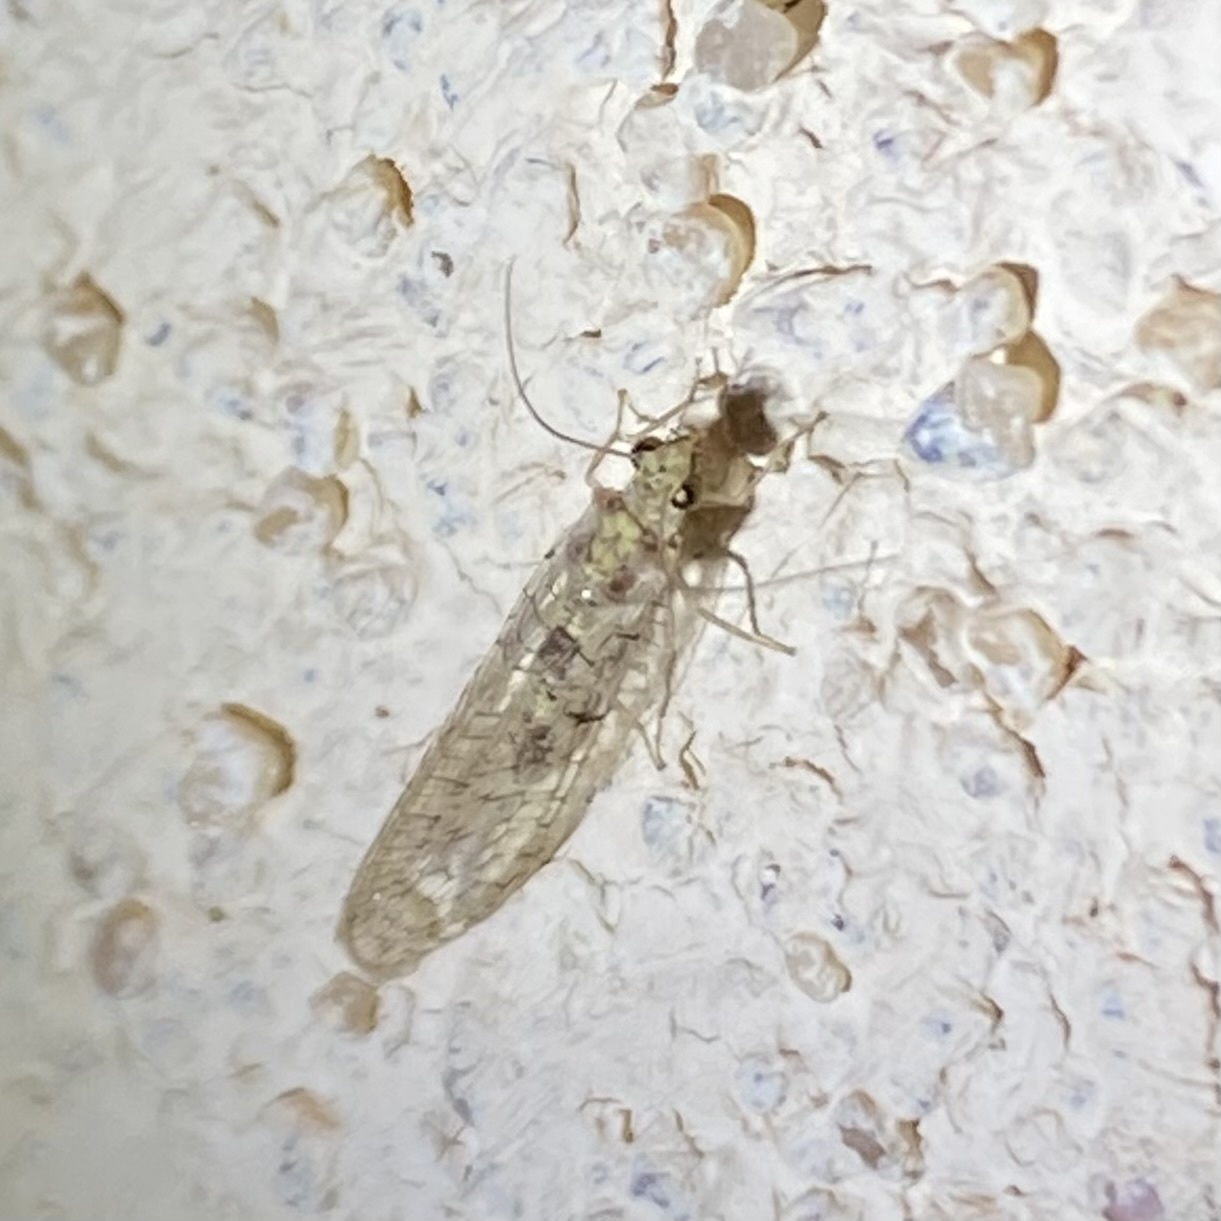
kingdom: Animalia
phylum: Arthropoda
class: Insecta
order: Neuroptera
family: Chrysopidae
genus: Eremochrysa
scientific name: Eremochrysa
